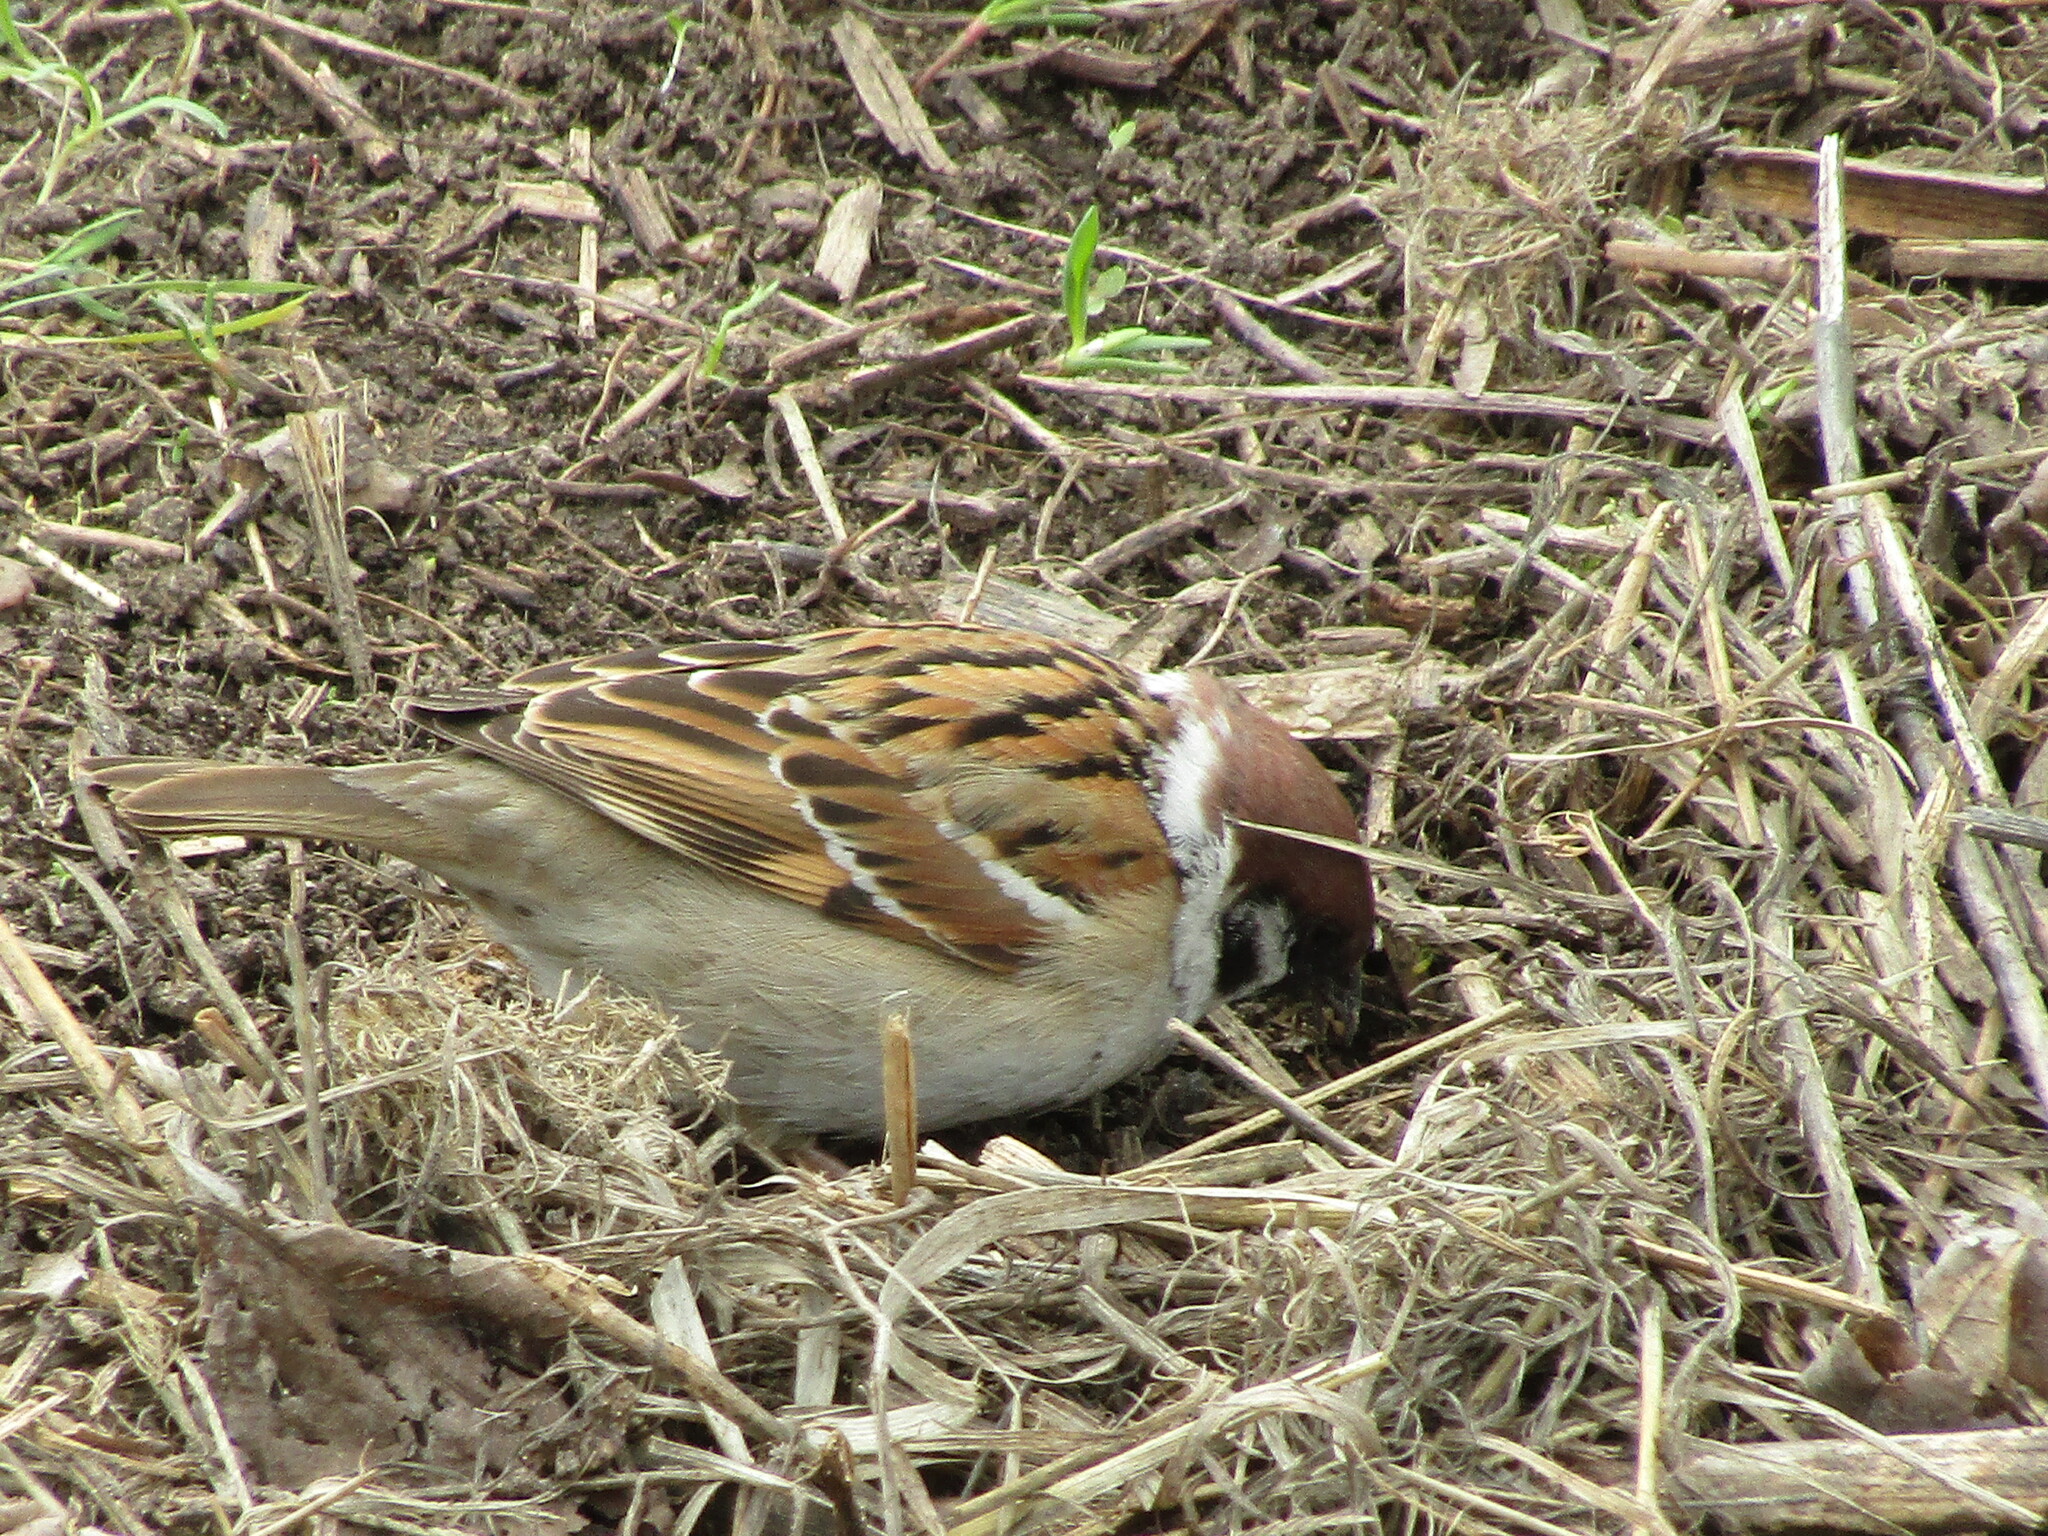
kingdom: Animalia
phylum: Chordata
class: Aves
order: Passeriformes
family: Passeridae
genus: Passer
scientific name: Passer montanus
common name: Eurasian tree sparrow
